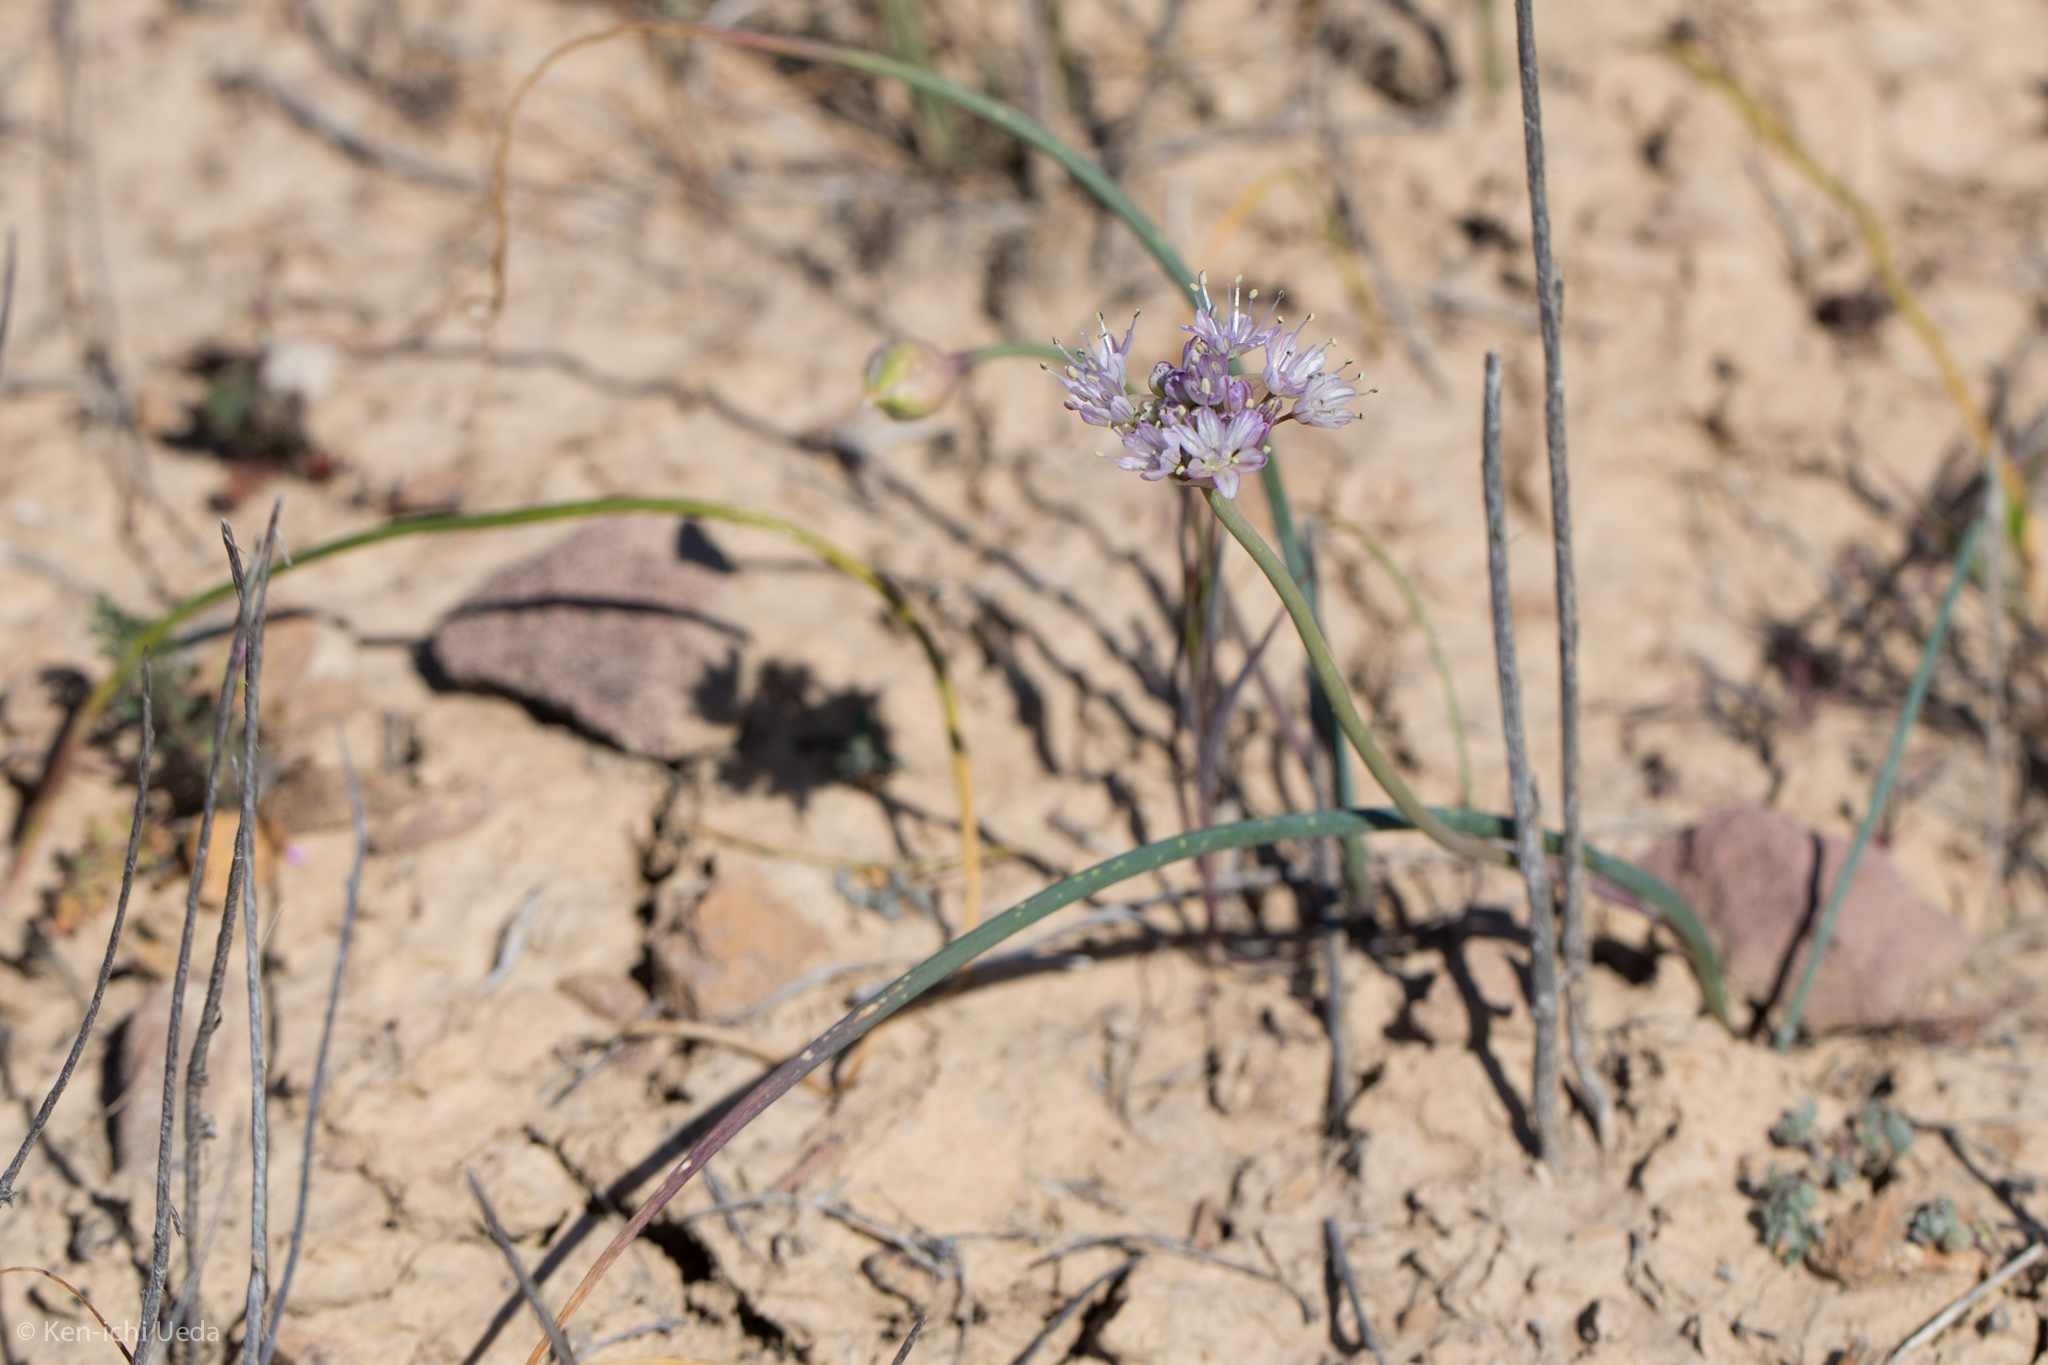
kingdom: Plantae
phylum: Tracheophyta
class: Liliopsida
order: Asparagales
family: Amaryllidaceae
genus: Allium
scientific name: Allium howellii
